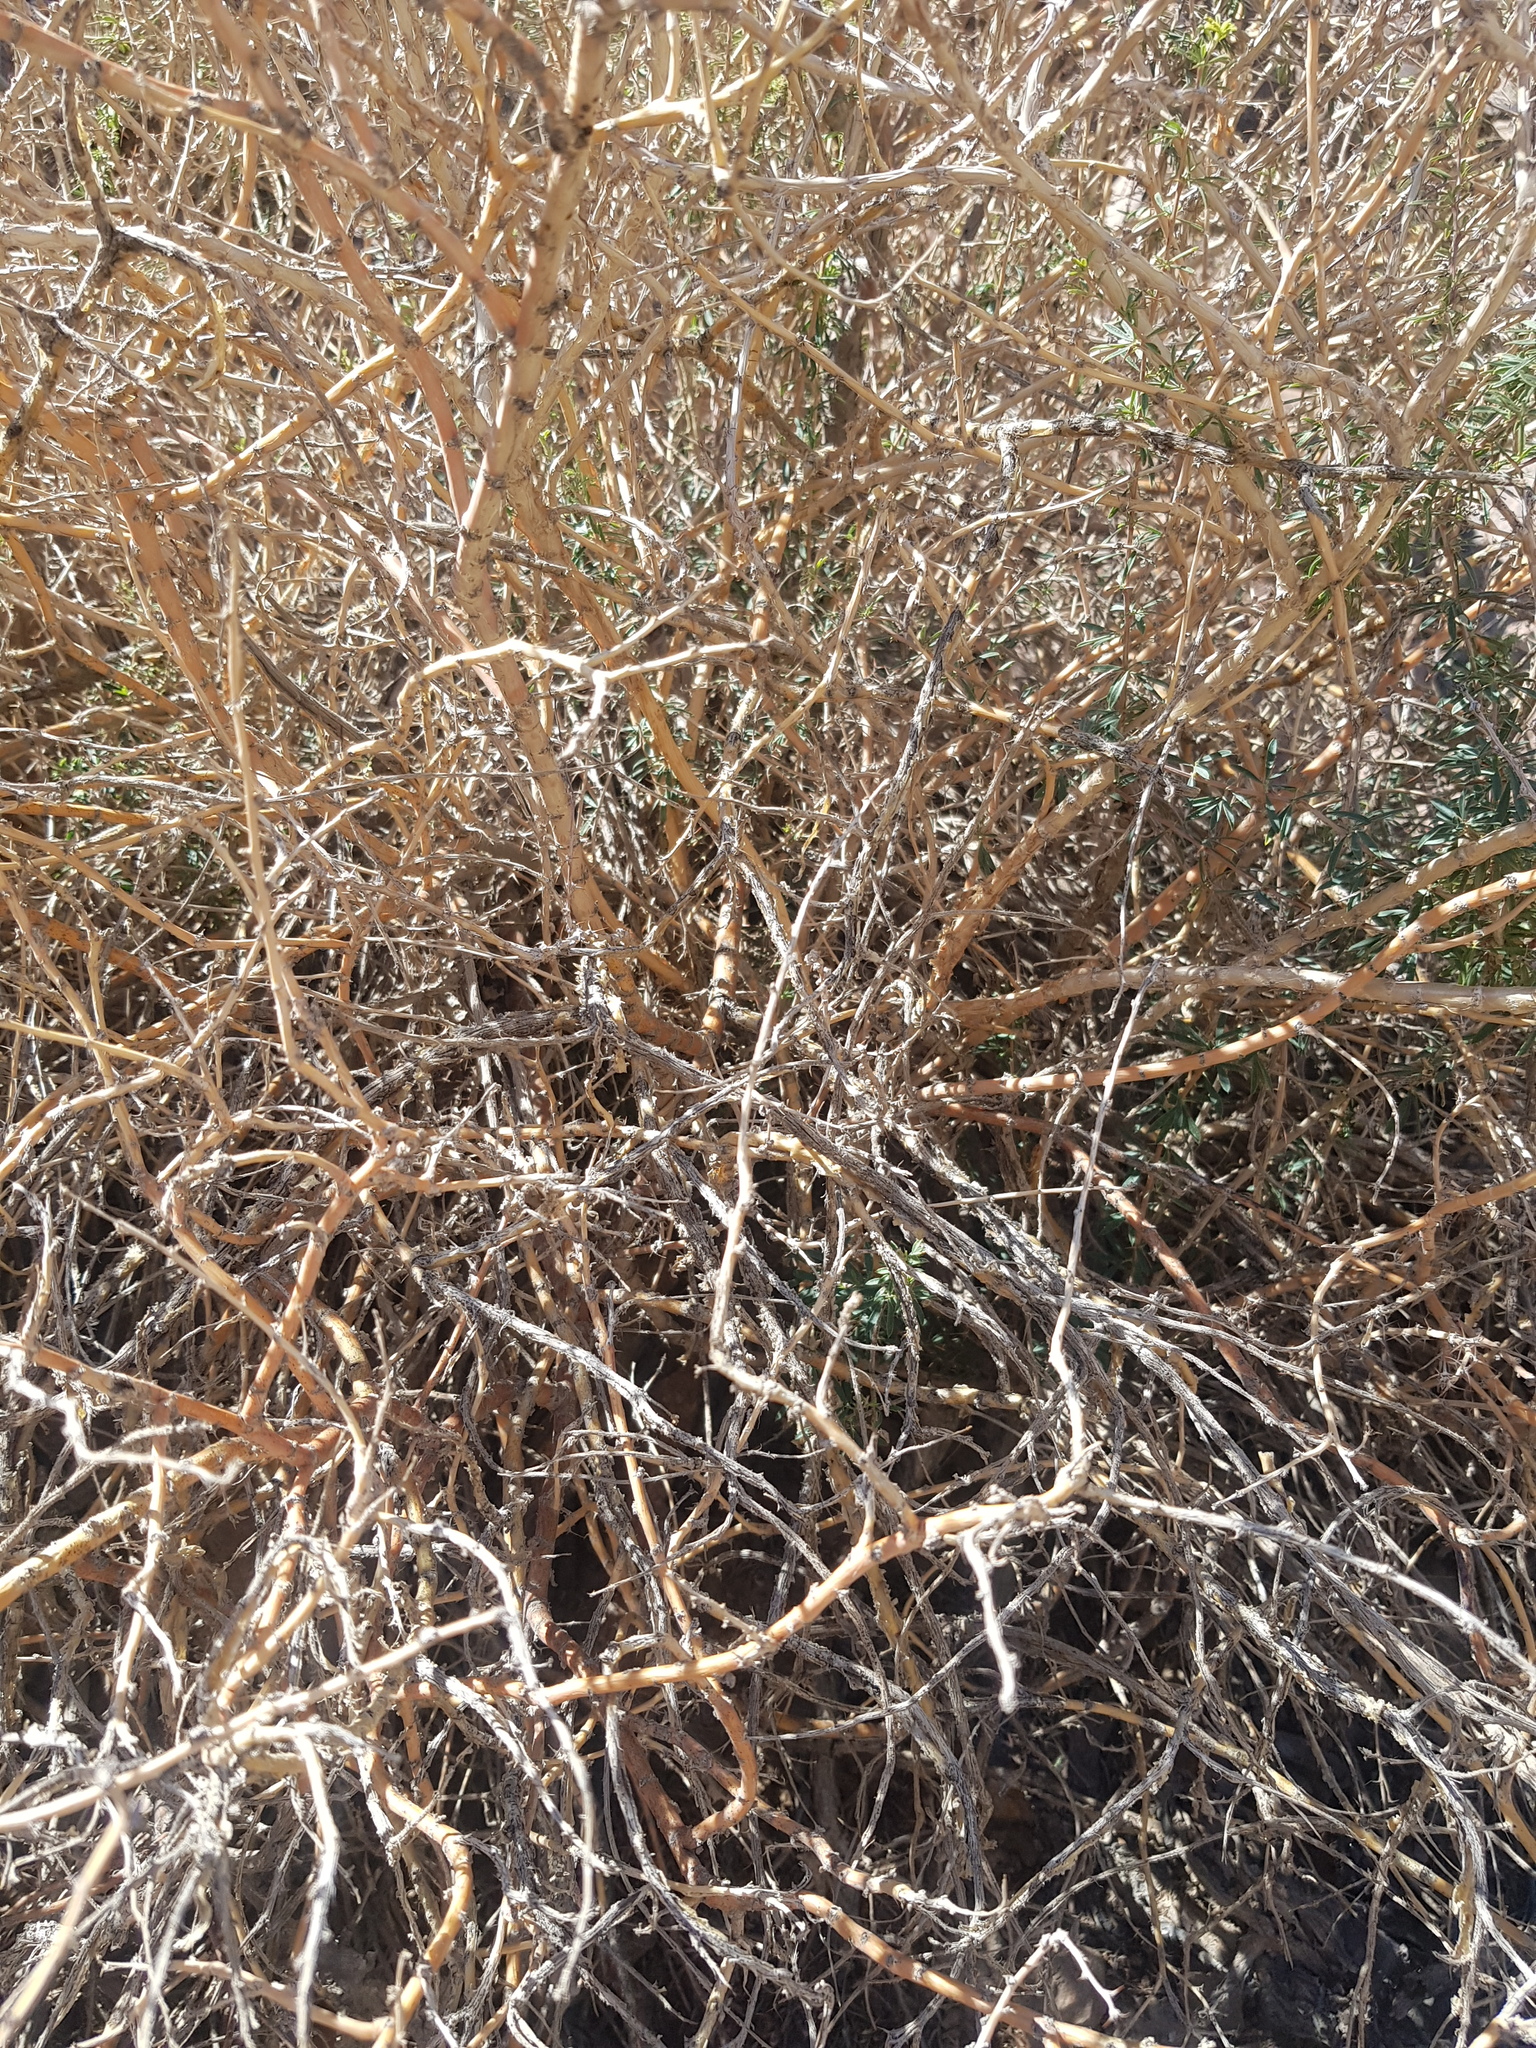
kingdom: Plantae
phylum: Tracheophyta
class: Magnoliopsida
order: Fabales
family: Fabaceae
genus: Caragana
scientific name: Caragana leucophloea
